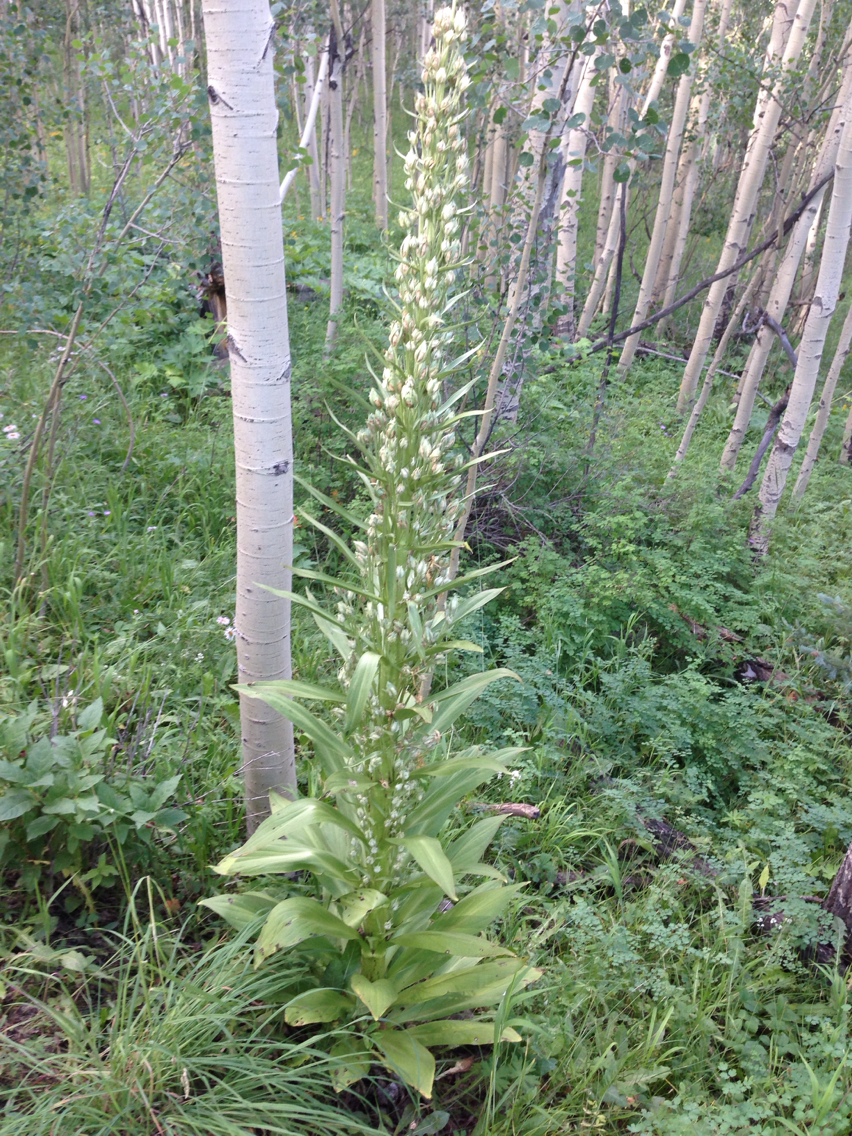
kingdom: Plantae
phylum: Tracheophyta
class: Magnoliopsida
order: Gentianales
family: Gentianaceae
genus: Frasera
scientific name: Frasera speciosa
